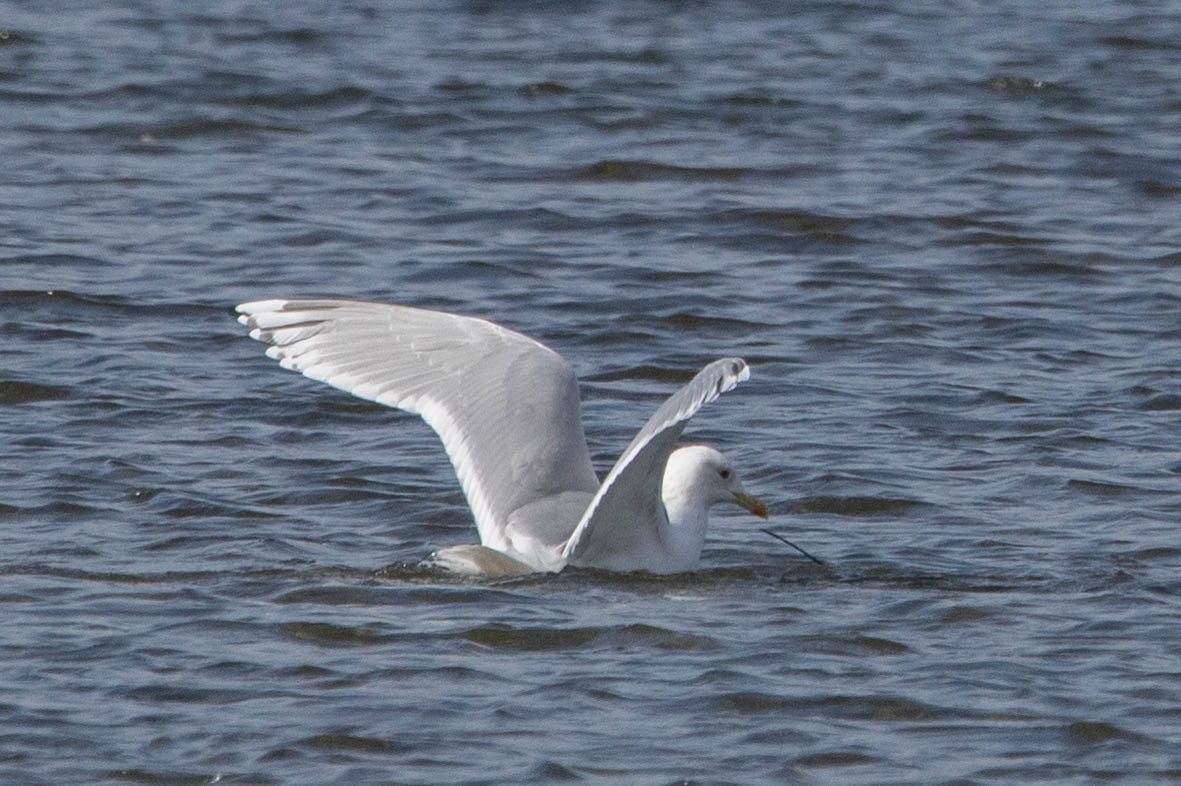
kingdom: Animalia
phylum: Chordata
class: Aves
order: Charadriiformes
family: Laridae
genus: Larus
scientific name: Larus glaucoides
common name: Iceland gull
